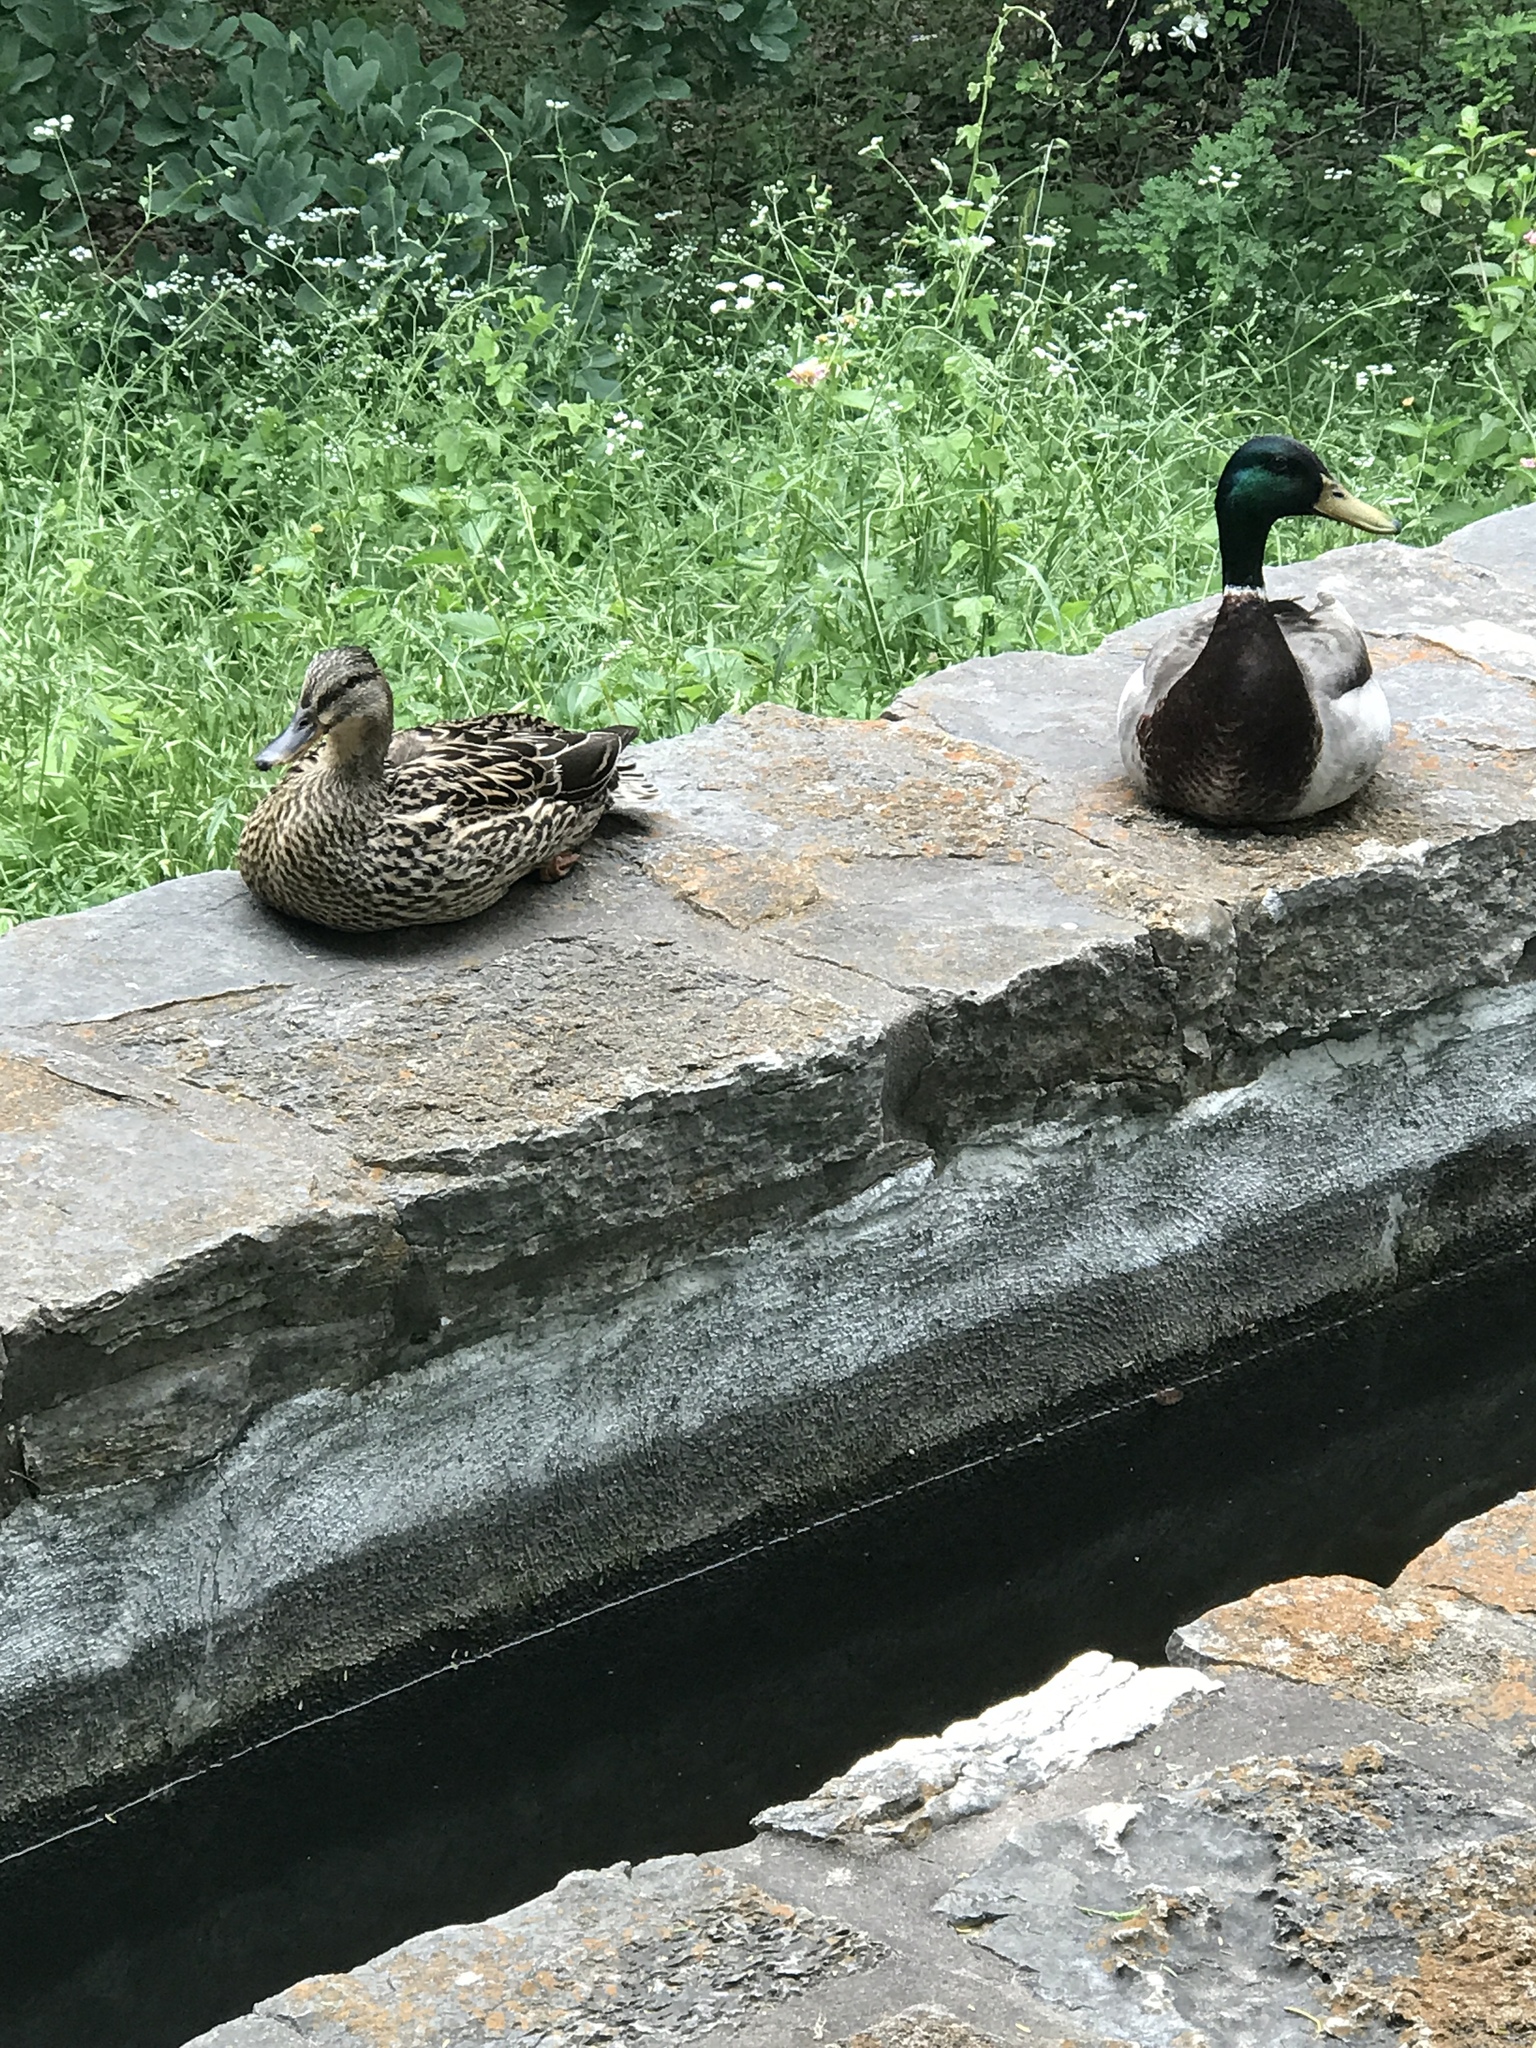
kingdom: Animalia
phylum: Chordata
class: Aves
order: Anseriformes
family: Anatidae
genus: Anas
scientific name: Anas platyrhynchos
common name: Mallard
